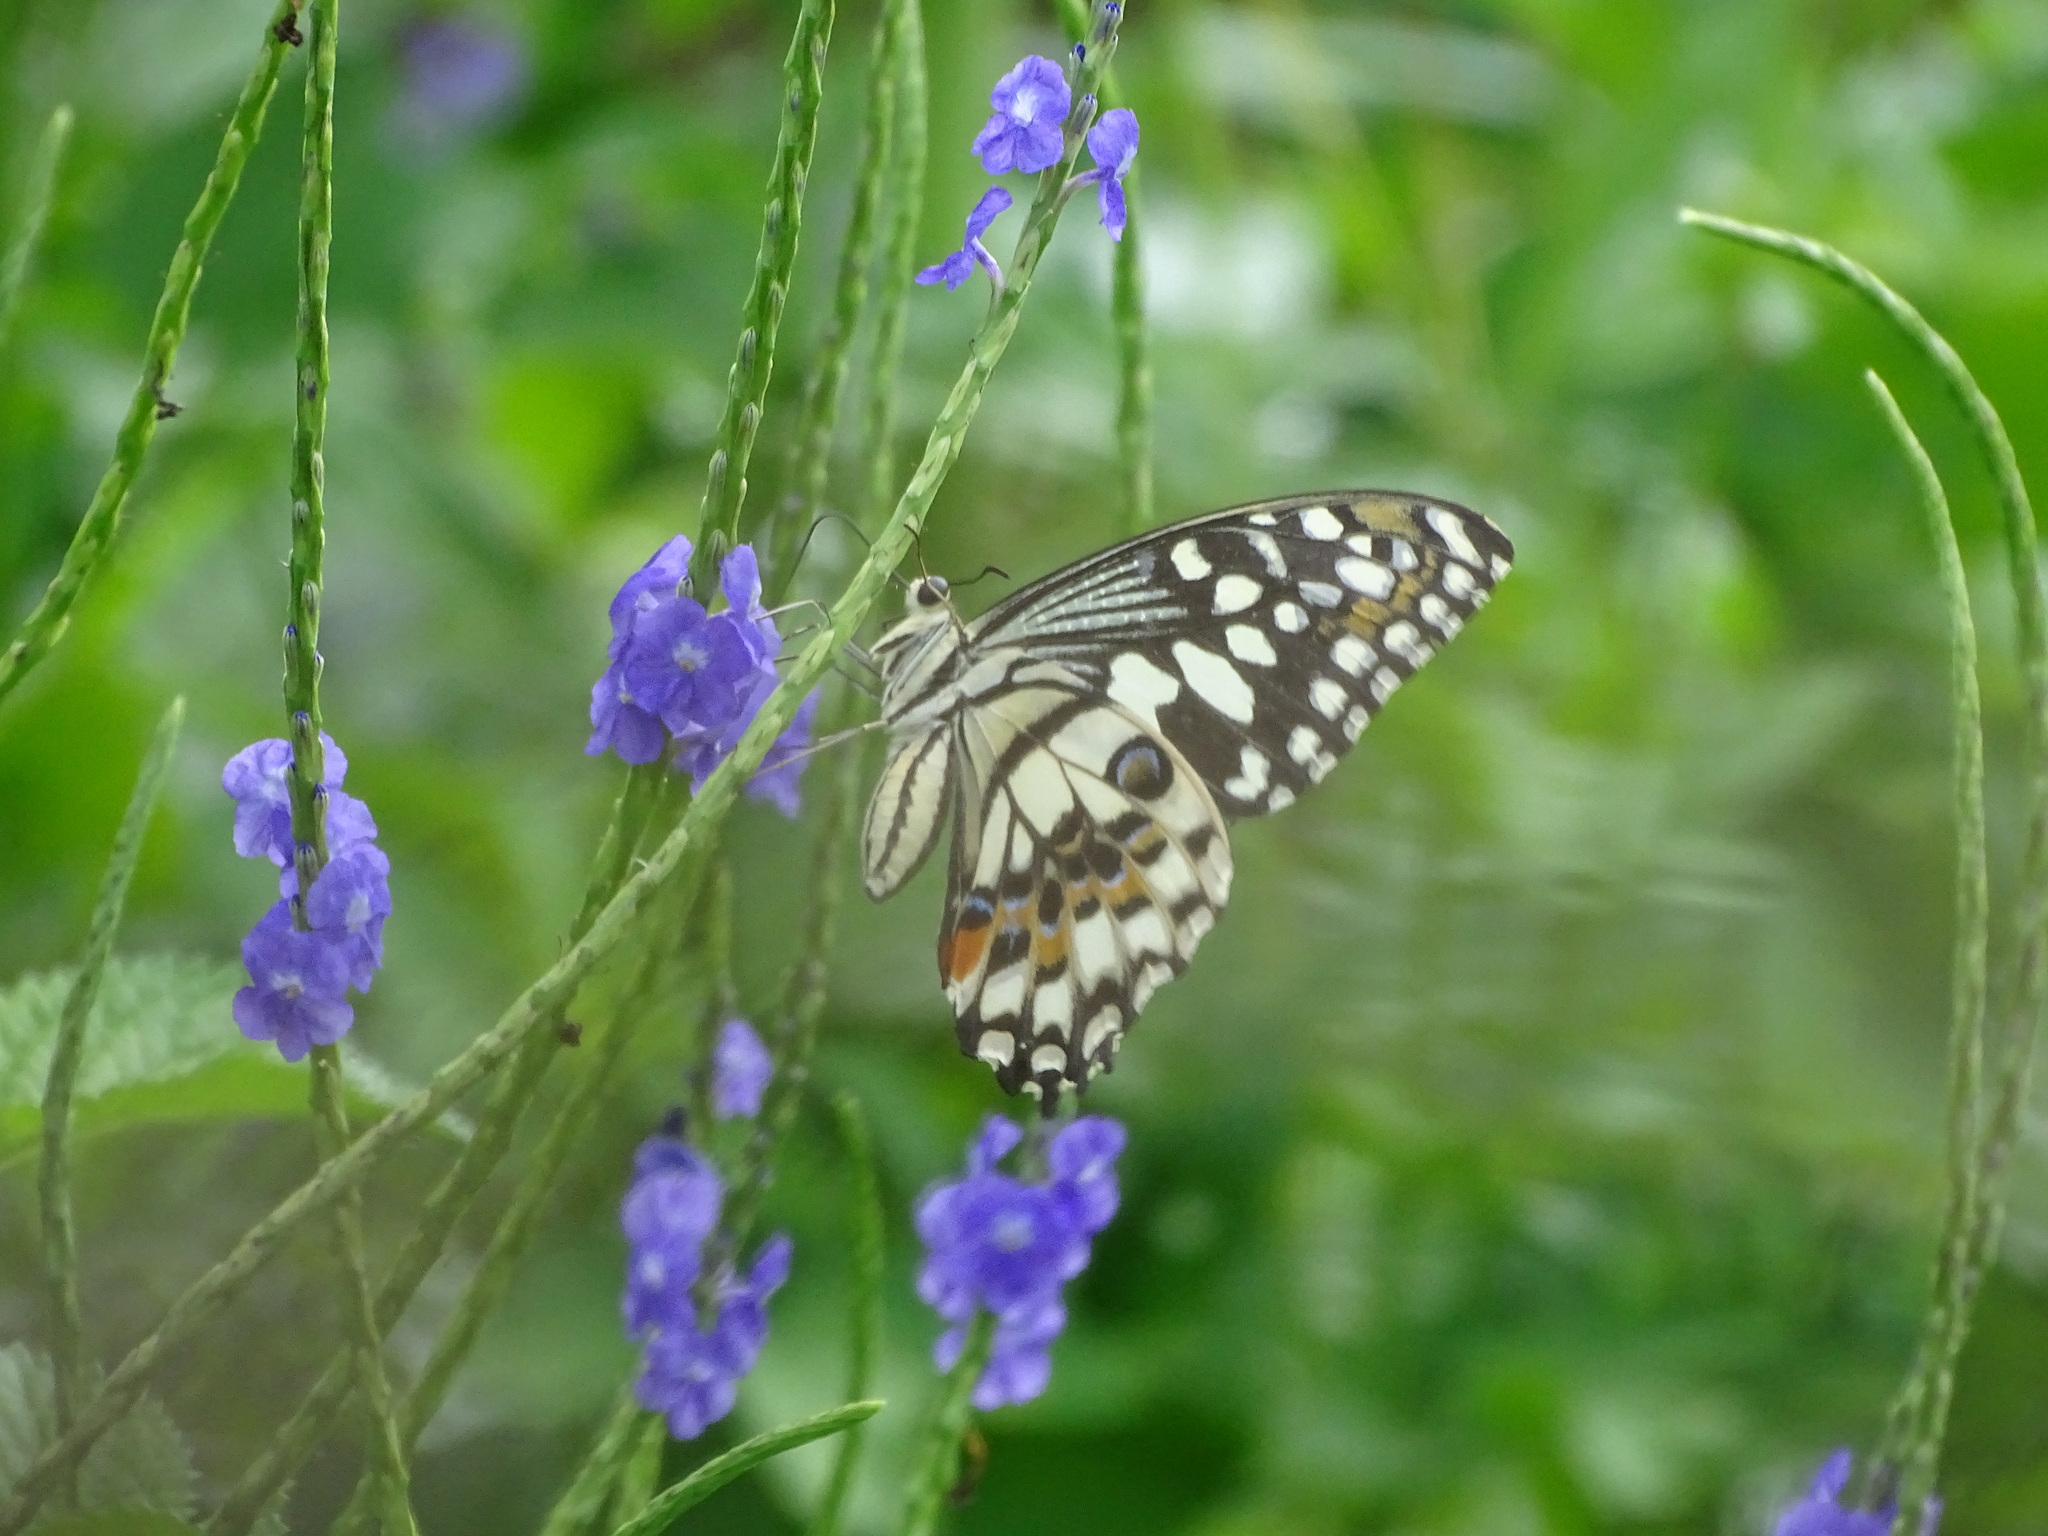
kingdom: Animalia
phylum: Arthropoda
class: Insecta
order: Lepidoptera
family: Papilionidae
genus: Papilio
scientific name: Papilio demoleus
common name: Lime butterfly
